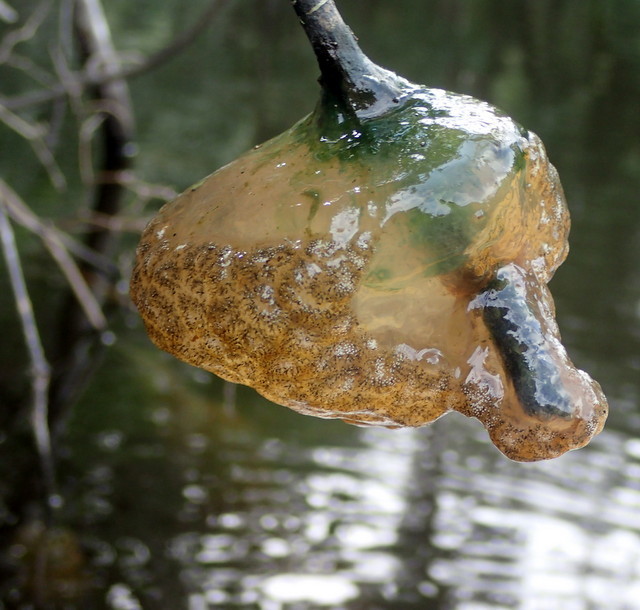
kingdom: Animalia
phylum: Bryozoa
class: Phylactolaemata
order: Plumatellida
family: Pectinatellidae
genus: Pectinatella
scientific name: Pectinatella magnifica
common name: Magnificent bryozoan
